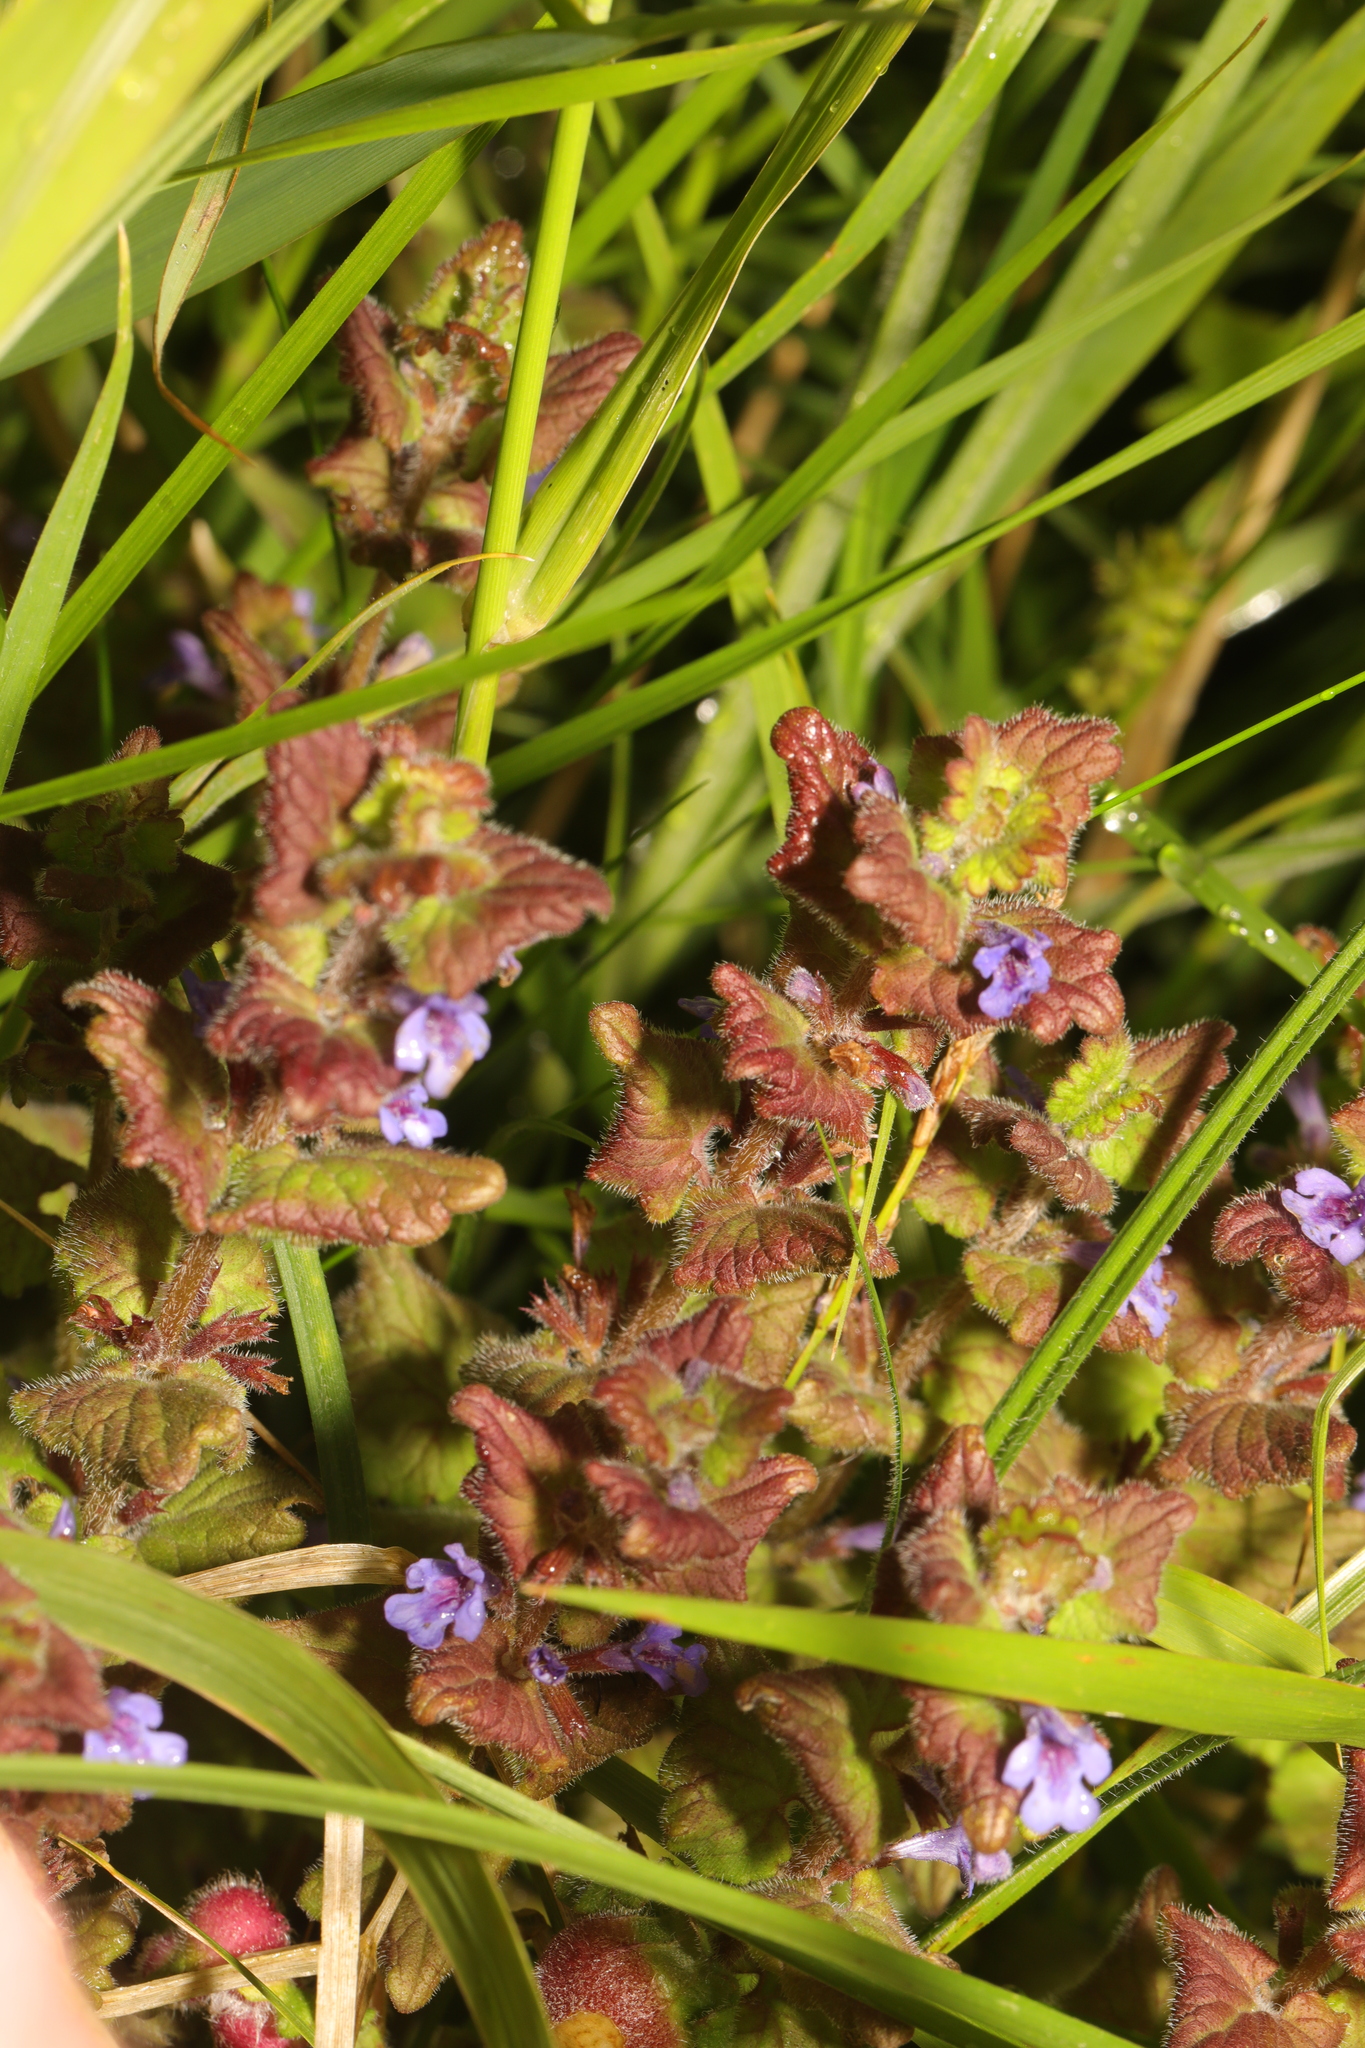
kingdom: Plantae
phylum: Tracheophyta
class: Magnoliopsida
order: Lamiales
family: Lamiaceae
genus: Glechoma
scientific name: Glechoma hederacea
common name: Ground ivy
